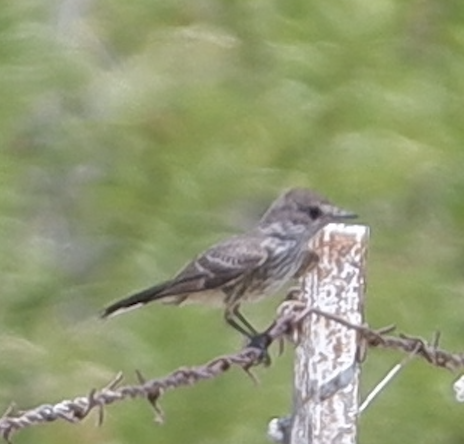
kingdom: Animalia
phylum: Chordata
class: Aves
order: Passeriformes
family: Tyrannidae
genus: Pyrocephalus
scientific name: Pyrocephalus rubinus
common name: Vermilion flycatcher
